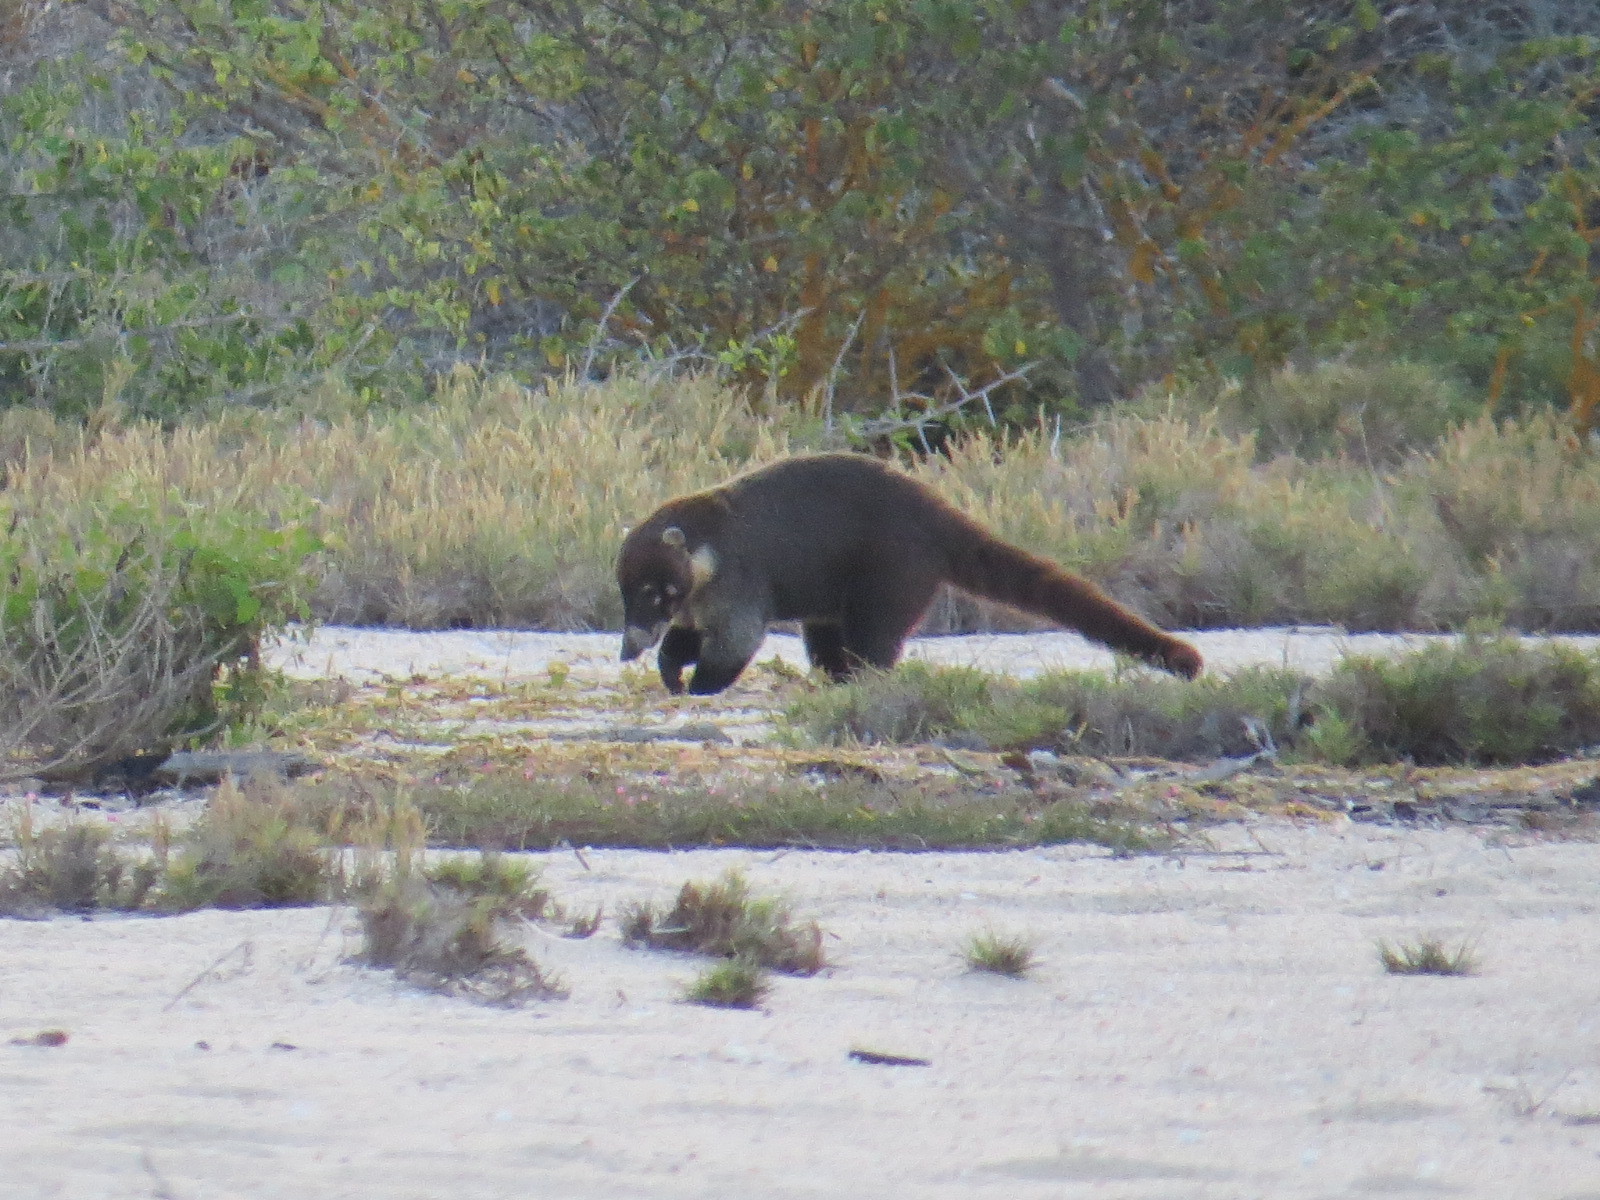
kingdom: Animalia
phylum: Chordata
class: Mammalia
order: Carnivora
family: Procyonidae
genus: Nasua
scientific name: Nasua narica
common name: White-nosed coati
